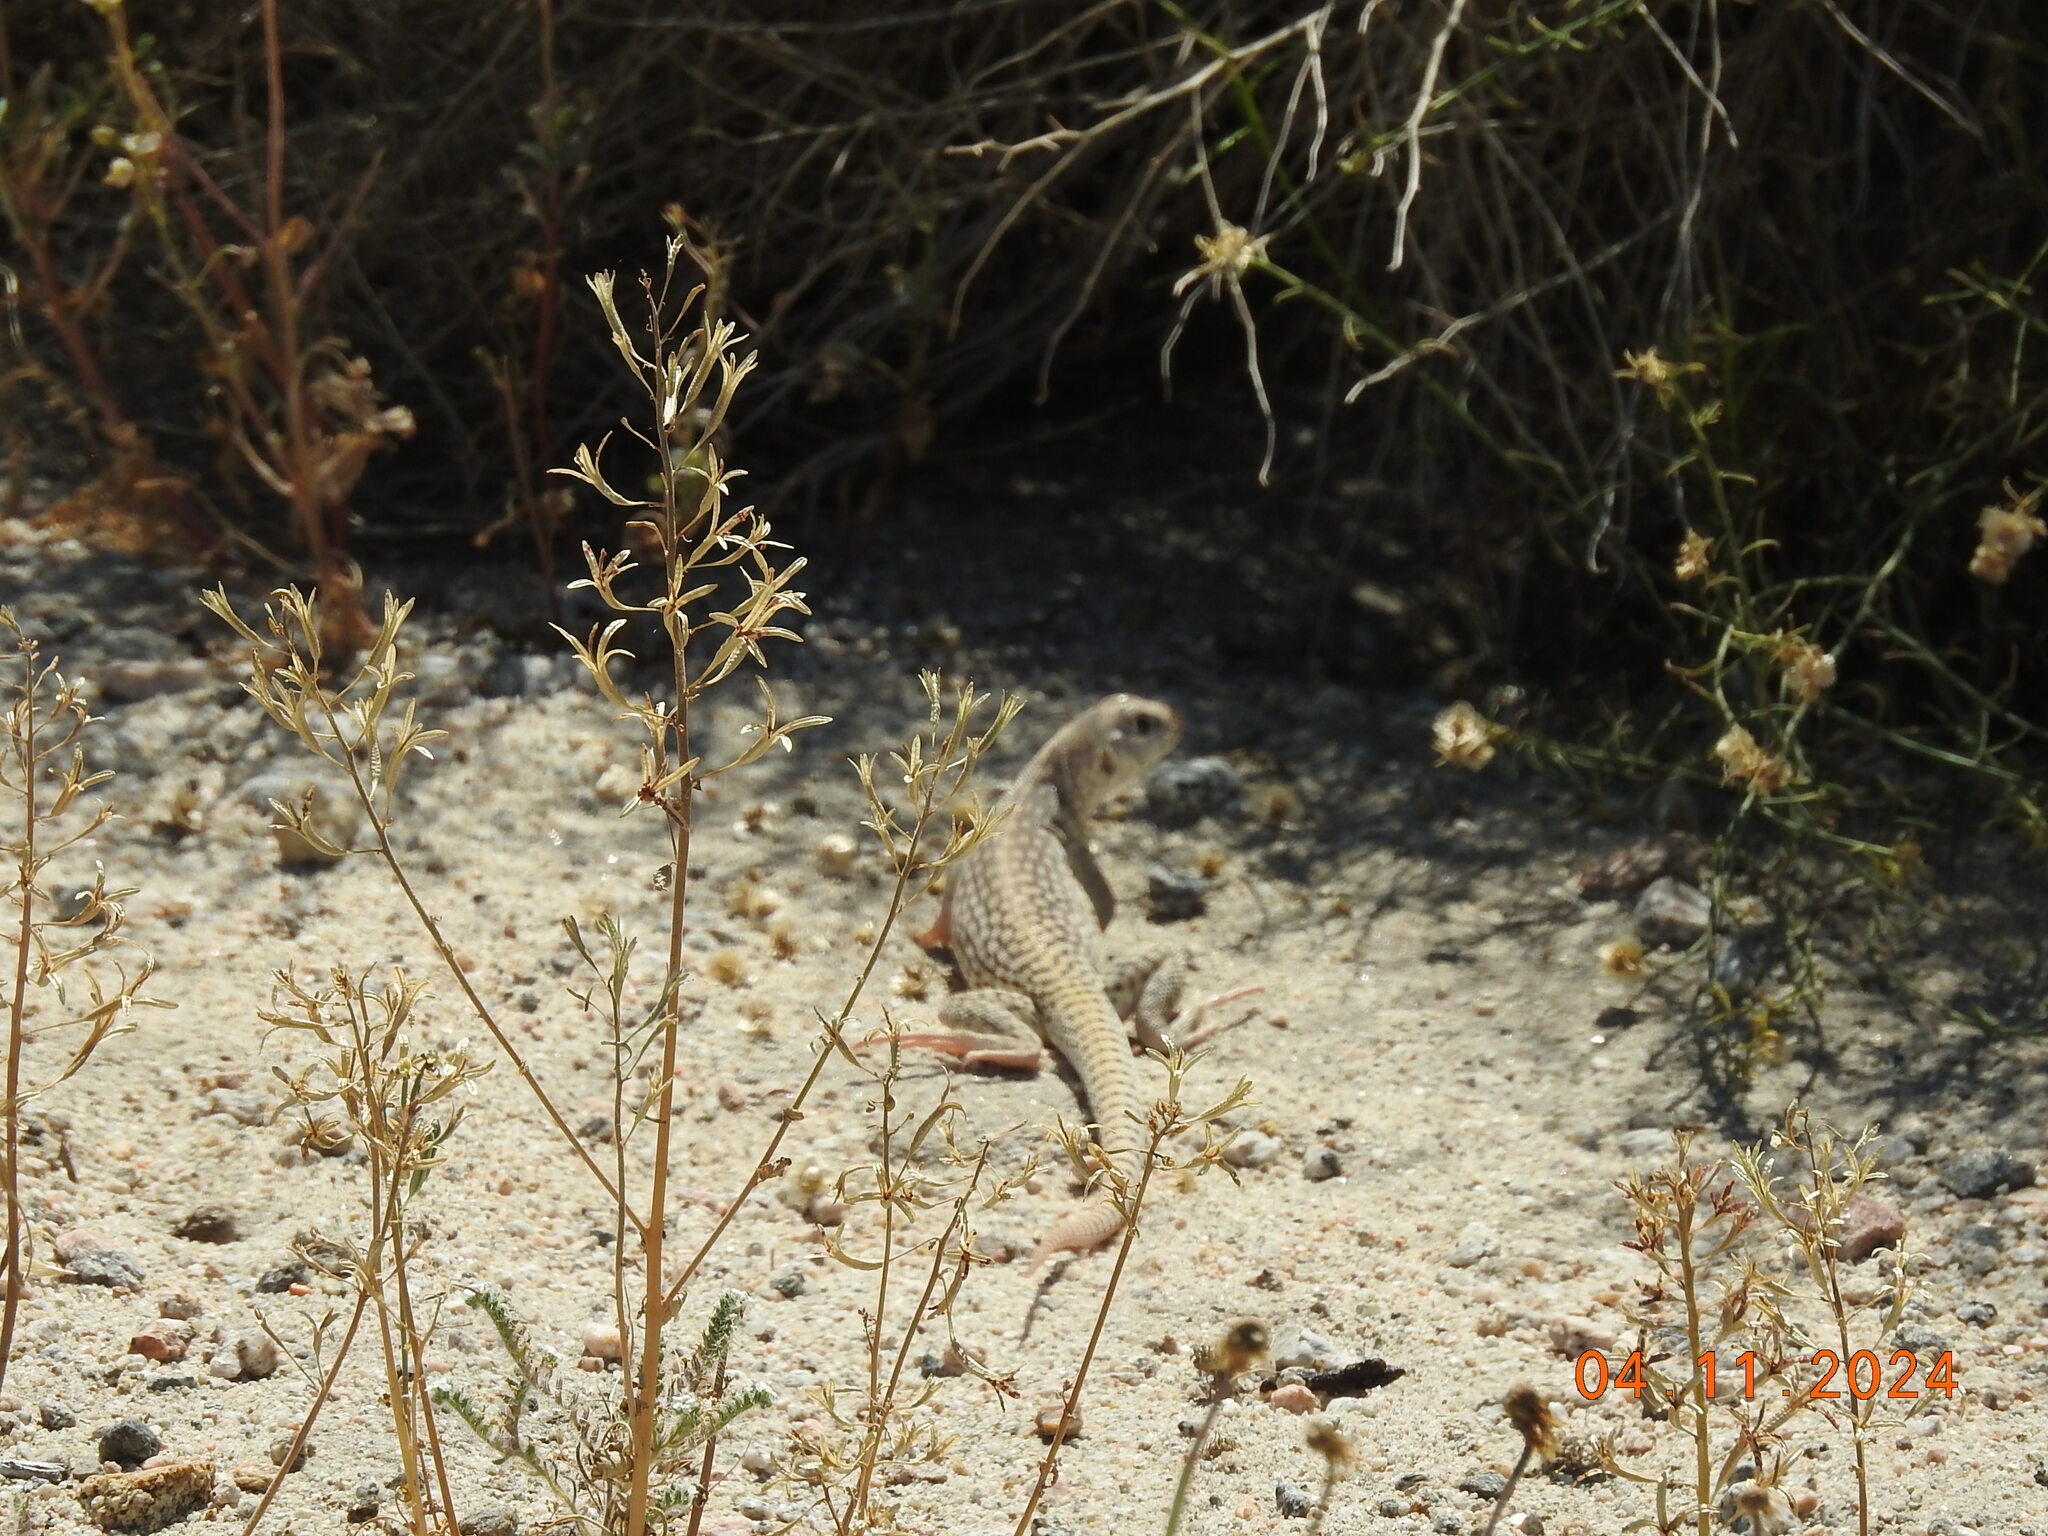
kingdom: Animalia
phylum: Chordata
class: Squamata
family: Iguanidae
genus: Dipsosaurus
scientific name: Dipsosaurus dorsalis
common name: Desert iguana
